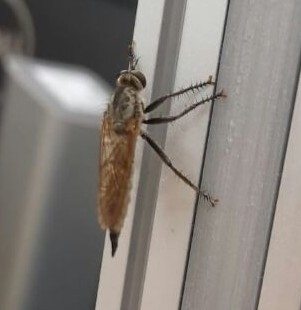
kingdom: Animalia
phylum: Arthropoda
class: Insecta
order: Diptera
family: Asilidae
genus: Eutolmus
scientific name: Eutolmus rufibarbis
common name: Golden-tabbed robberfly
